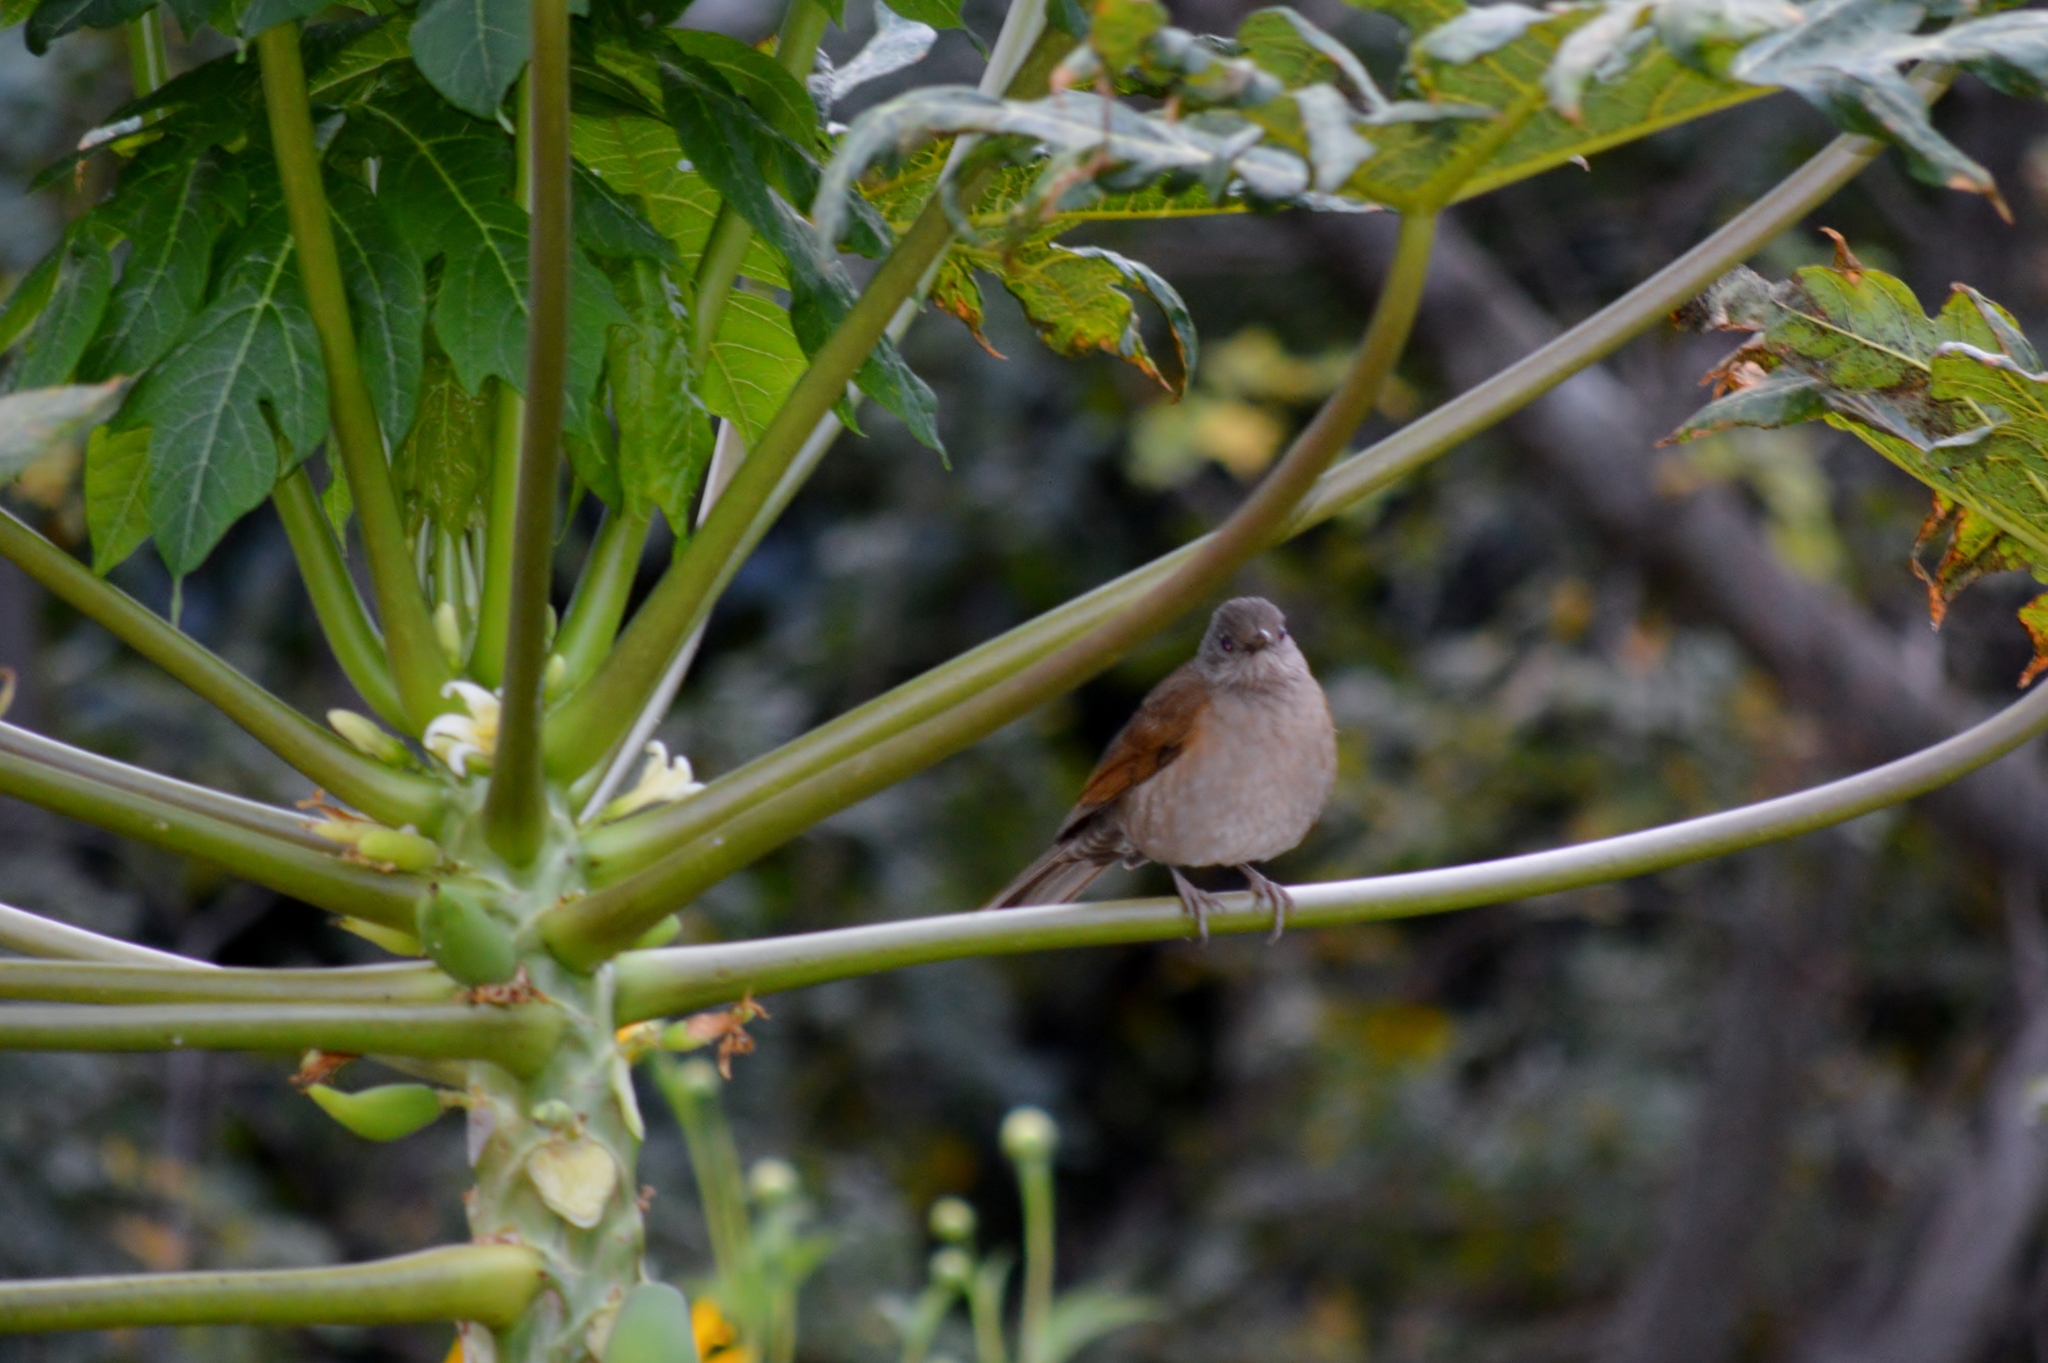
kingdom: Animalia
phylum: Chordata
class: Aves
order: Passeriformes
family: Turdidae
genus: Turdus
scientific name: Turdus leucomelas
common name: Pale-breasted thrush
